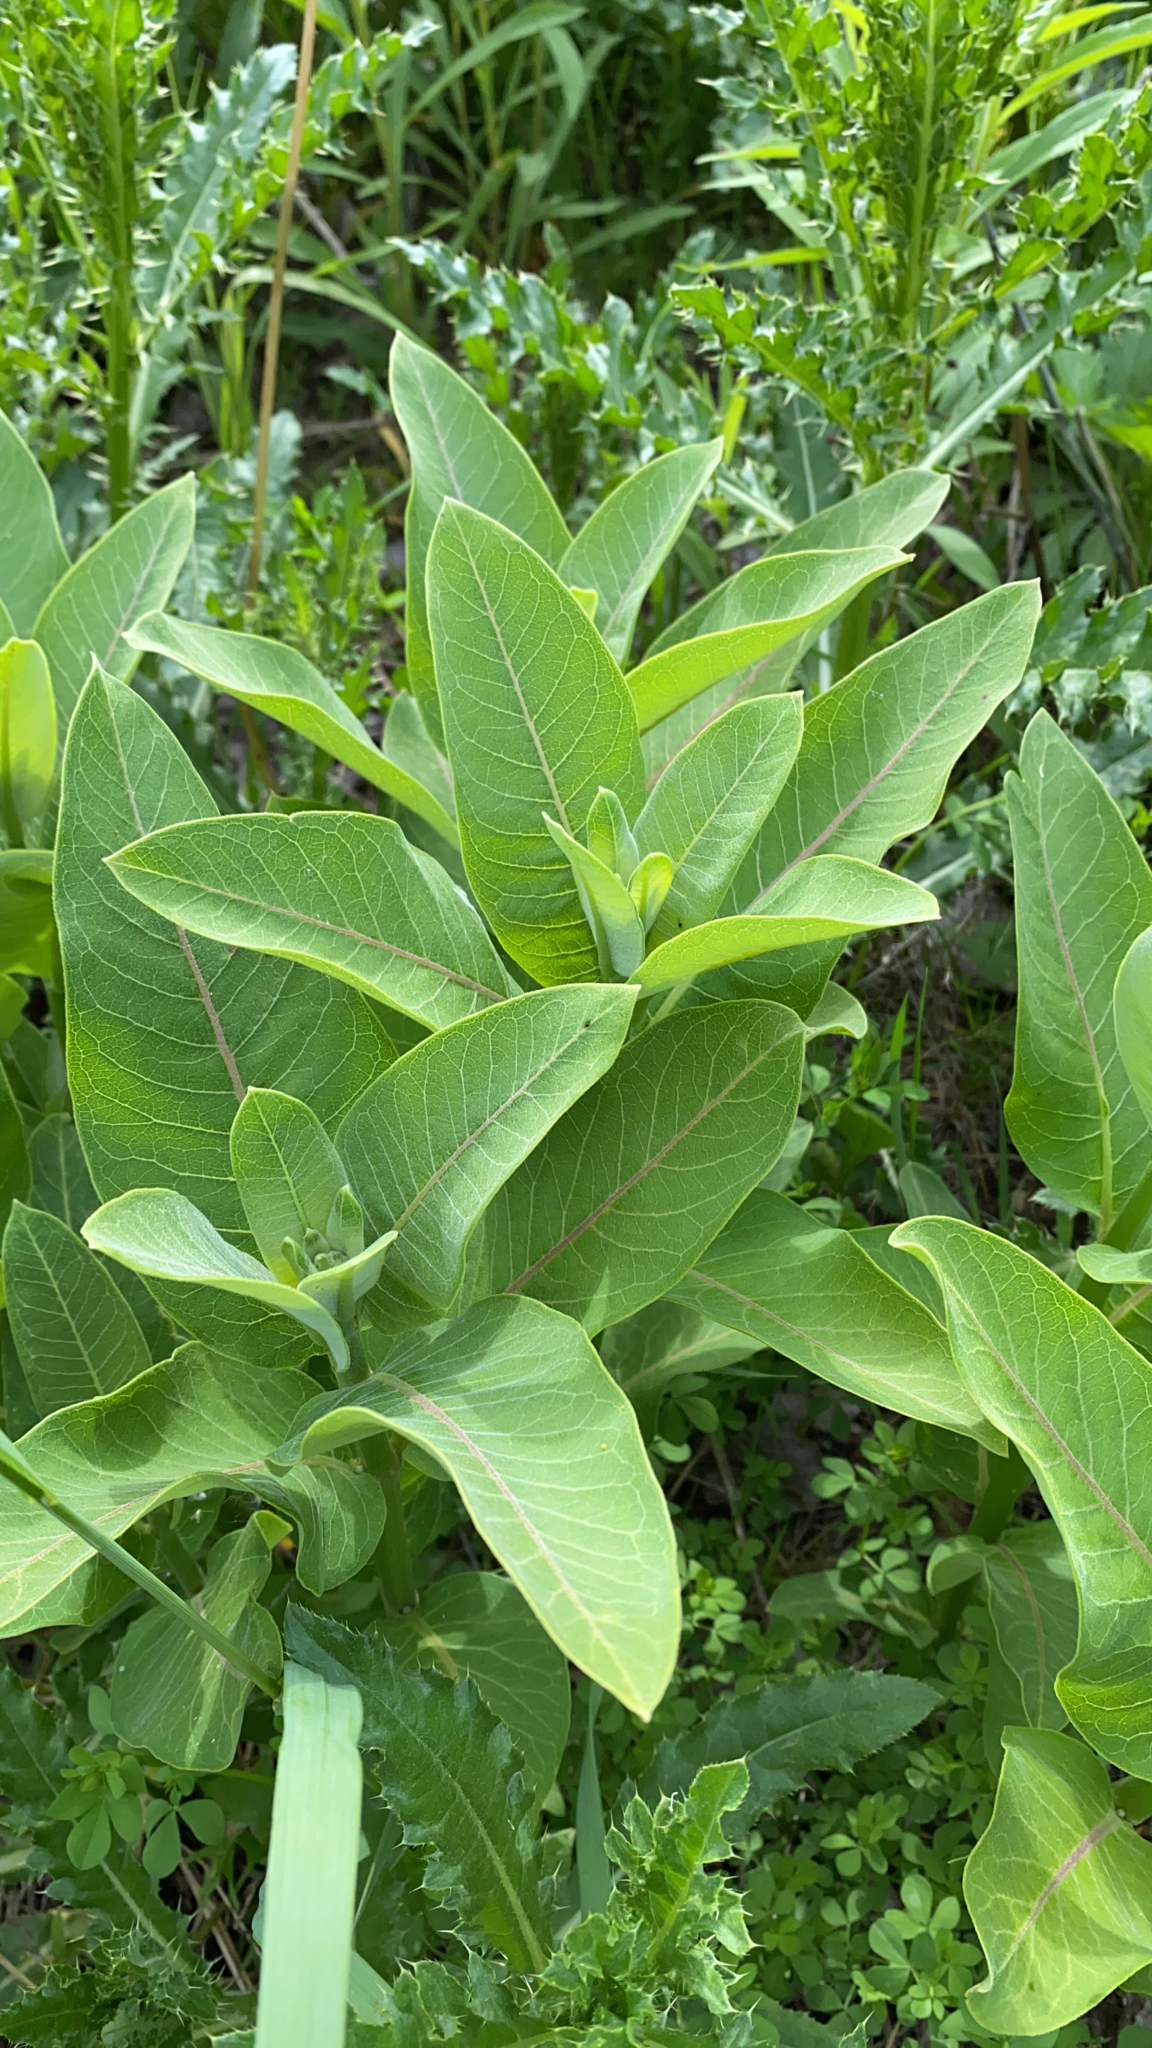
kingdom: Plantae
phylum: Tracheophyta
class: Magnoliopsida
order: Gentianales
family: Apocynaceae
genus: Asclepias
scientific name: Asclepias syriaca
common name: Common milkweed
